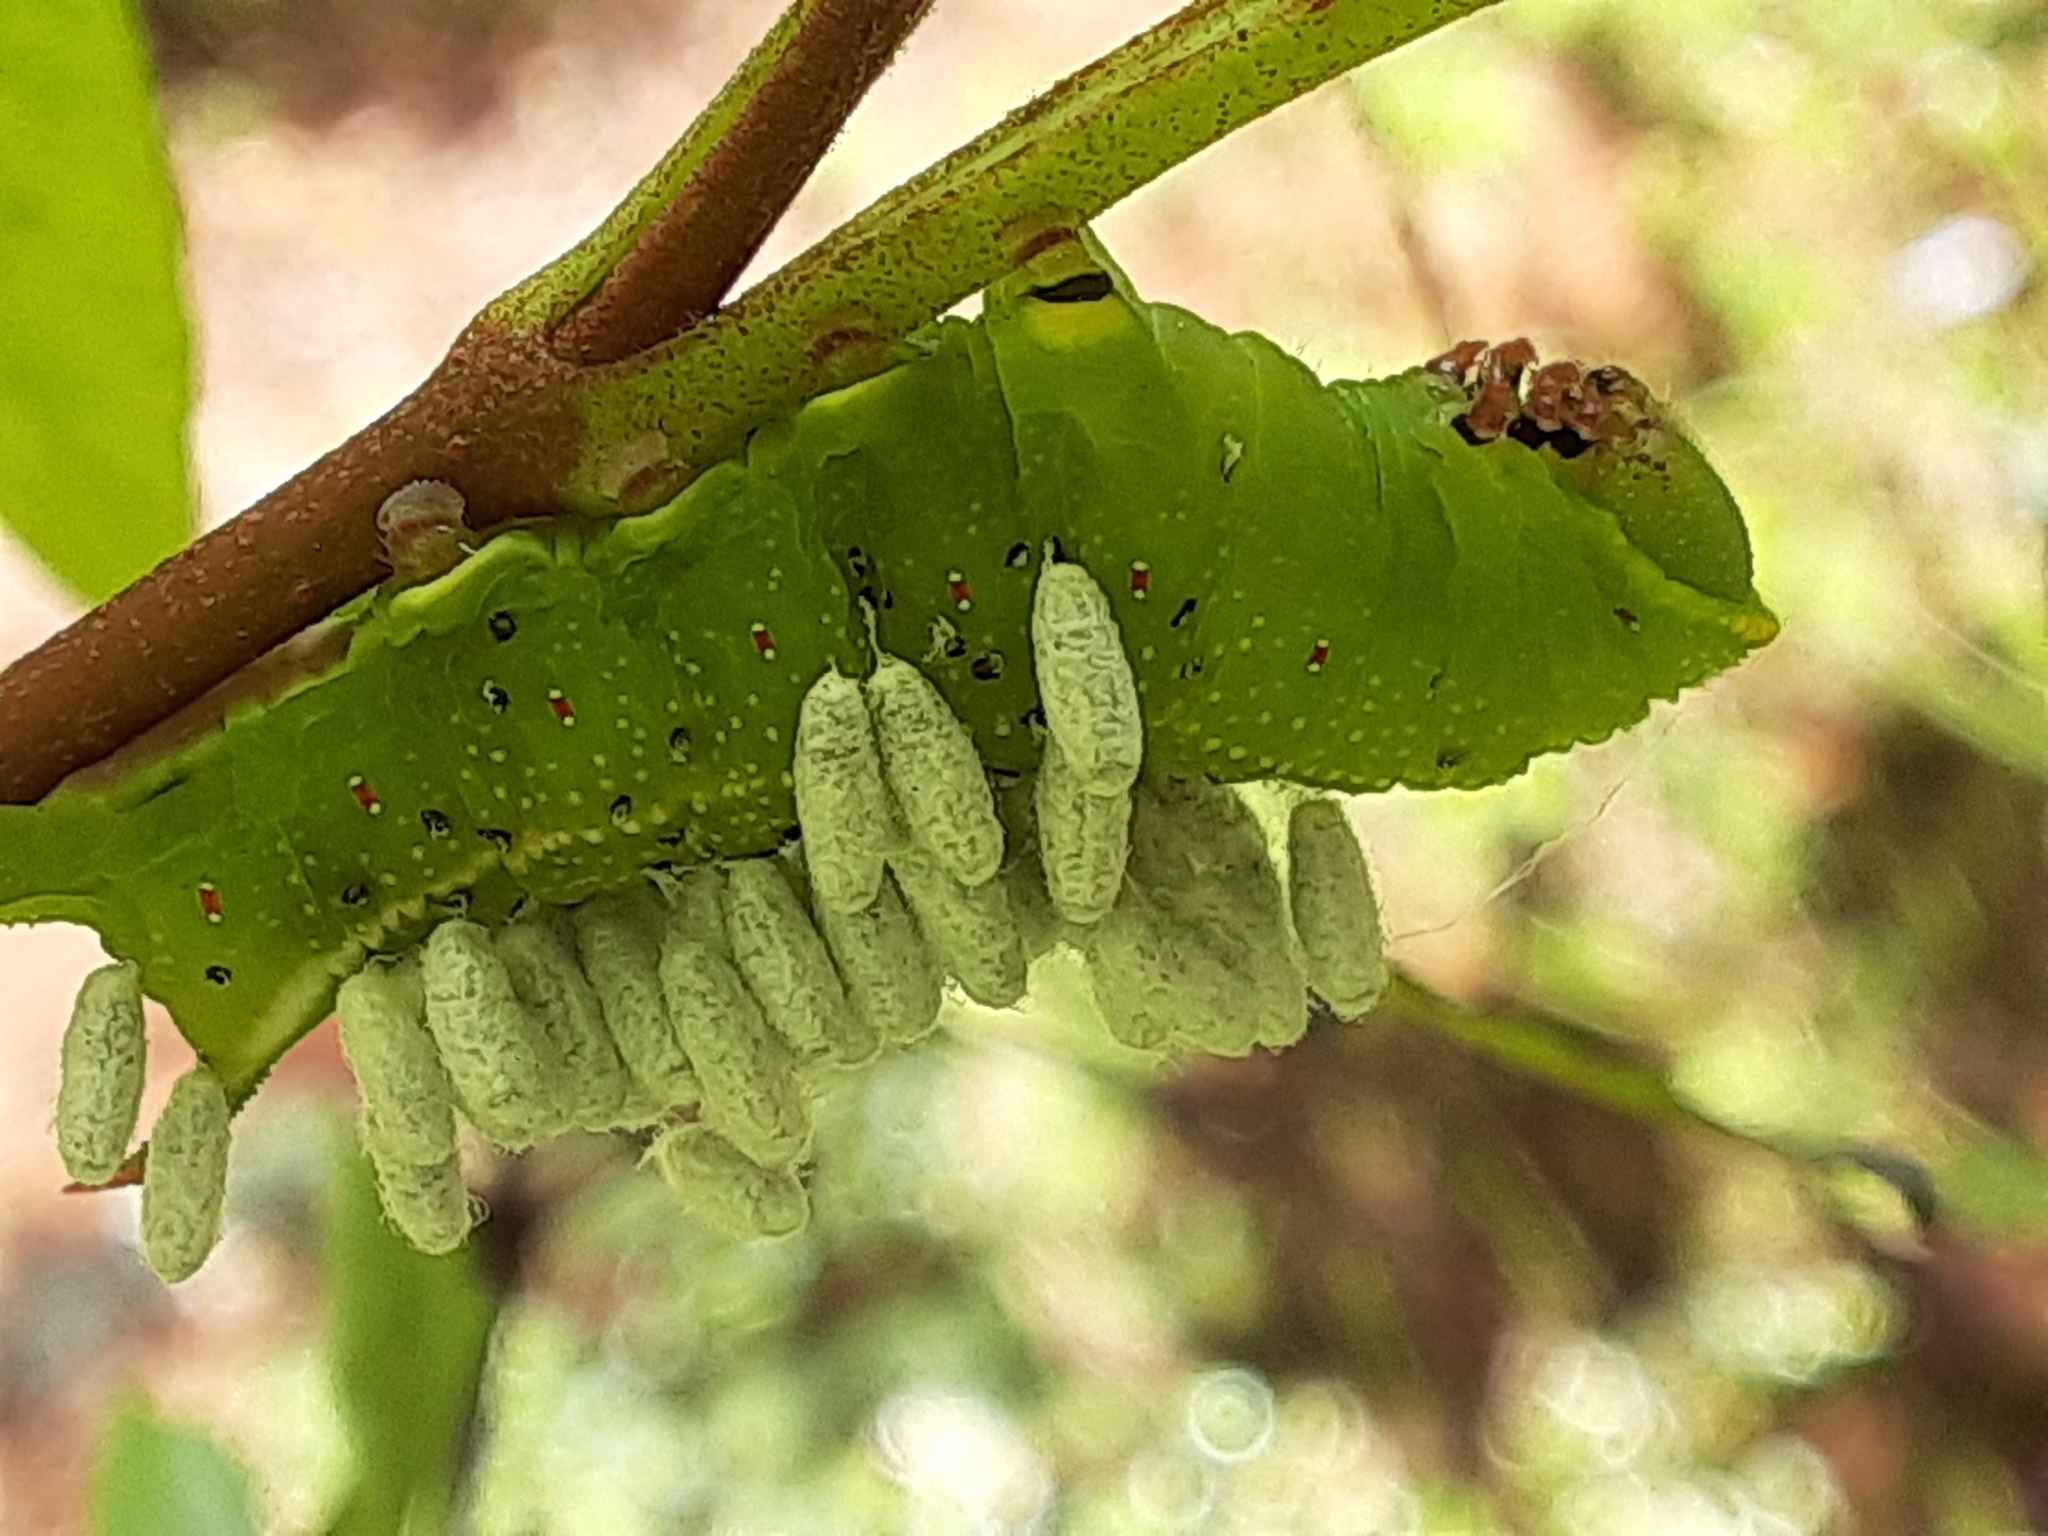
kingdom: Animalia
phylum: Arthropoda
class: Insecta
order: Hymenoptera
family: Braconidae
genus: Cotesia
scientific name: Cotesia congregata
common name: Hornworm parasitoid wasp
